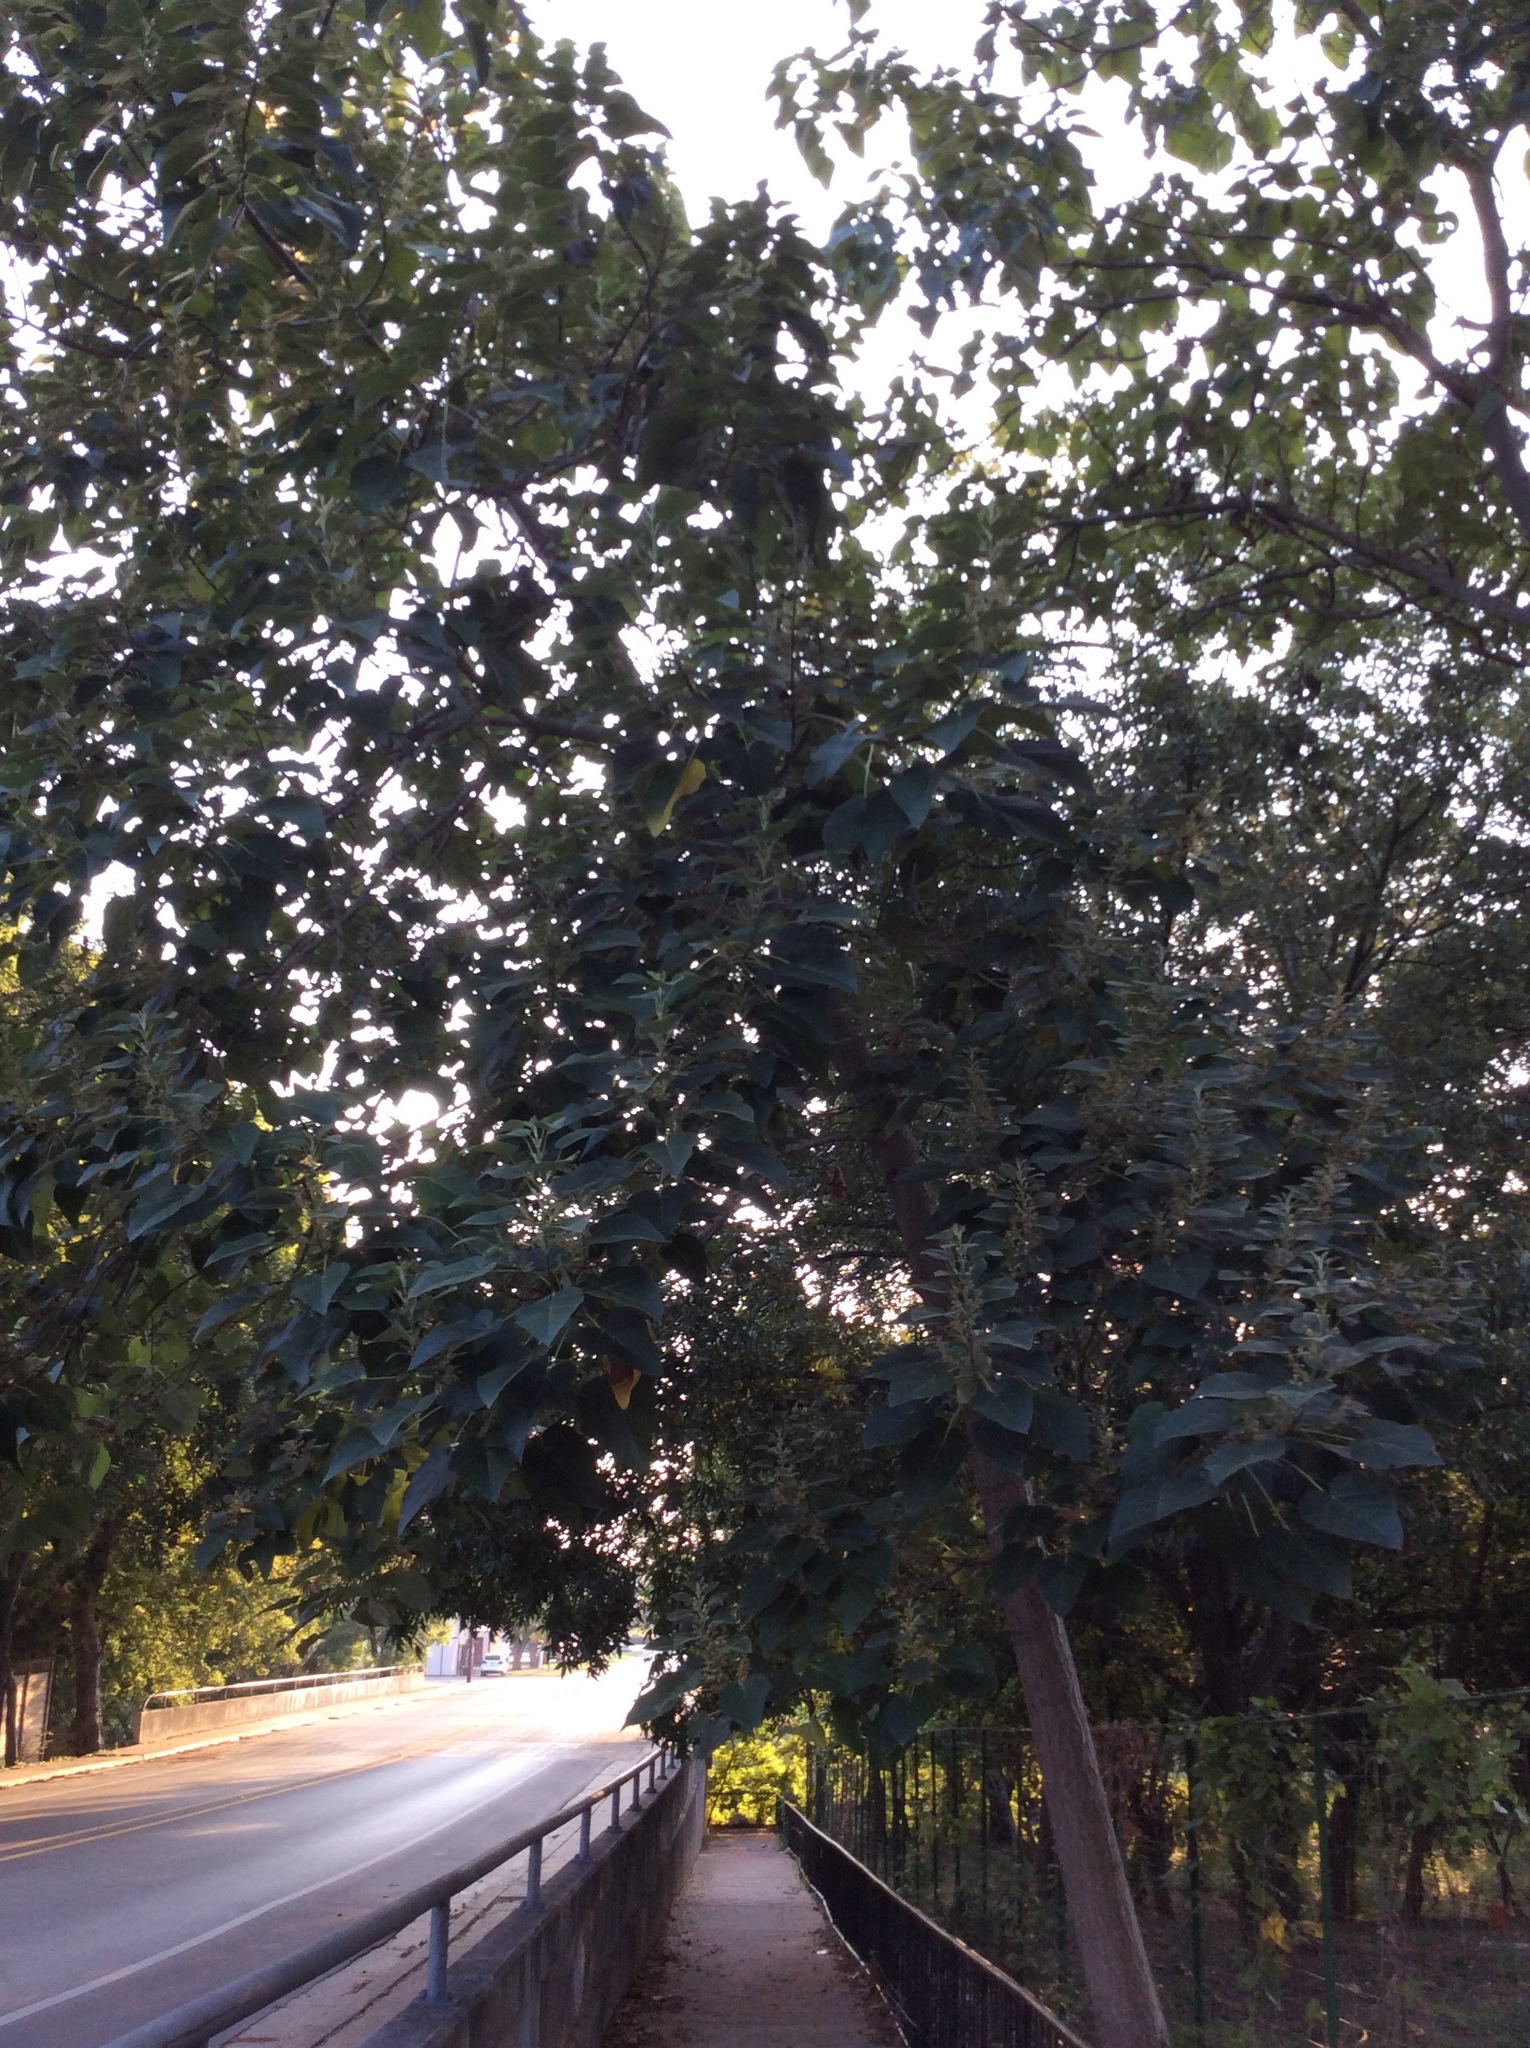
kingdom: Plantae
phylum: Tracheophyta
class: Magnoliopsida
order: Lamiales
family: Paulowniaceae
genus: Paulownia
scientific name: Paulownia tomentosa
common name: Foxglove-tree
